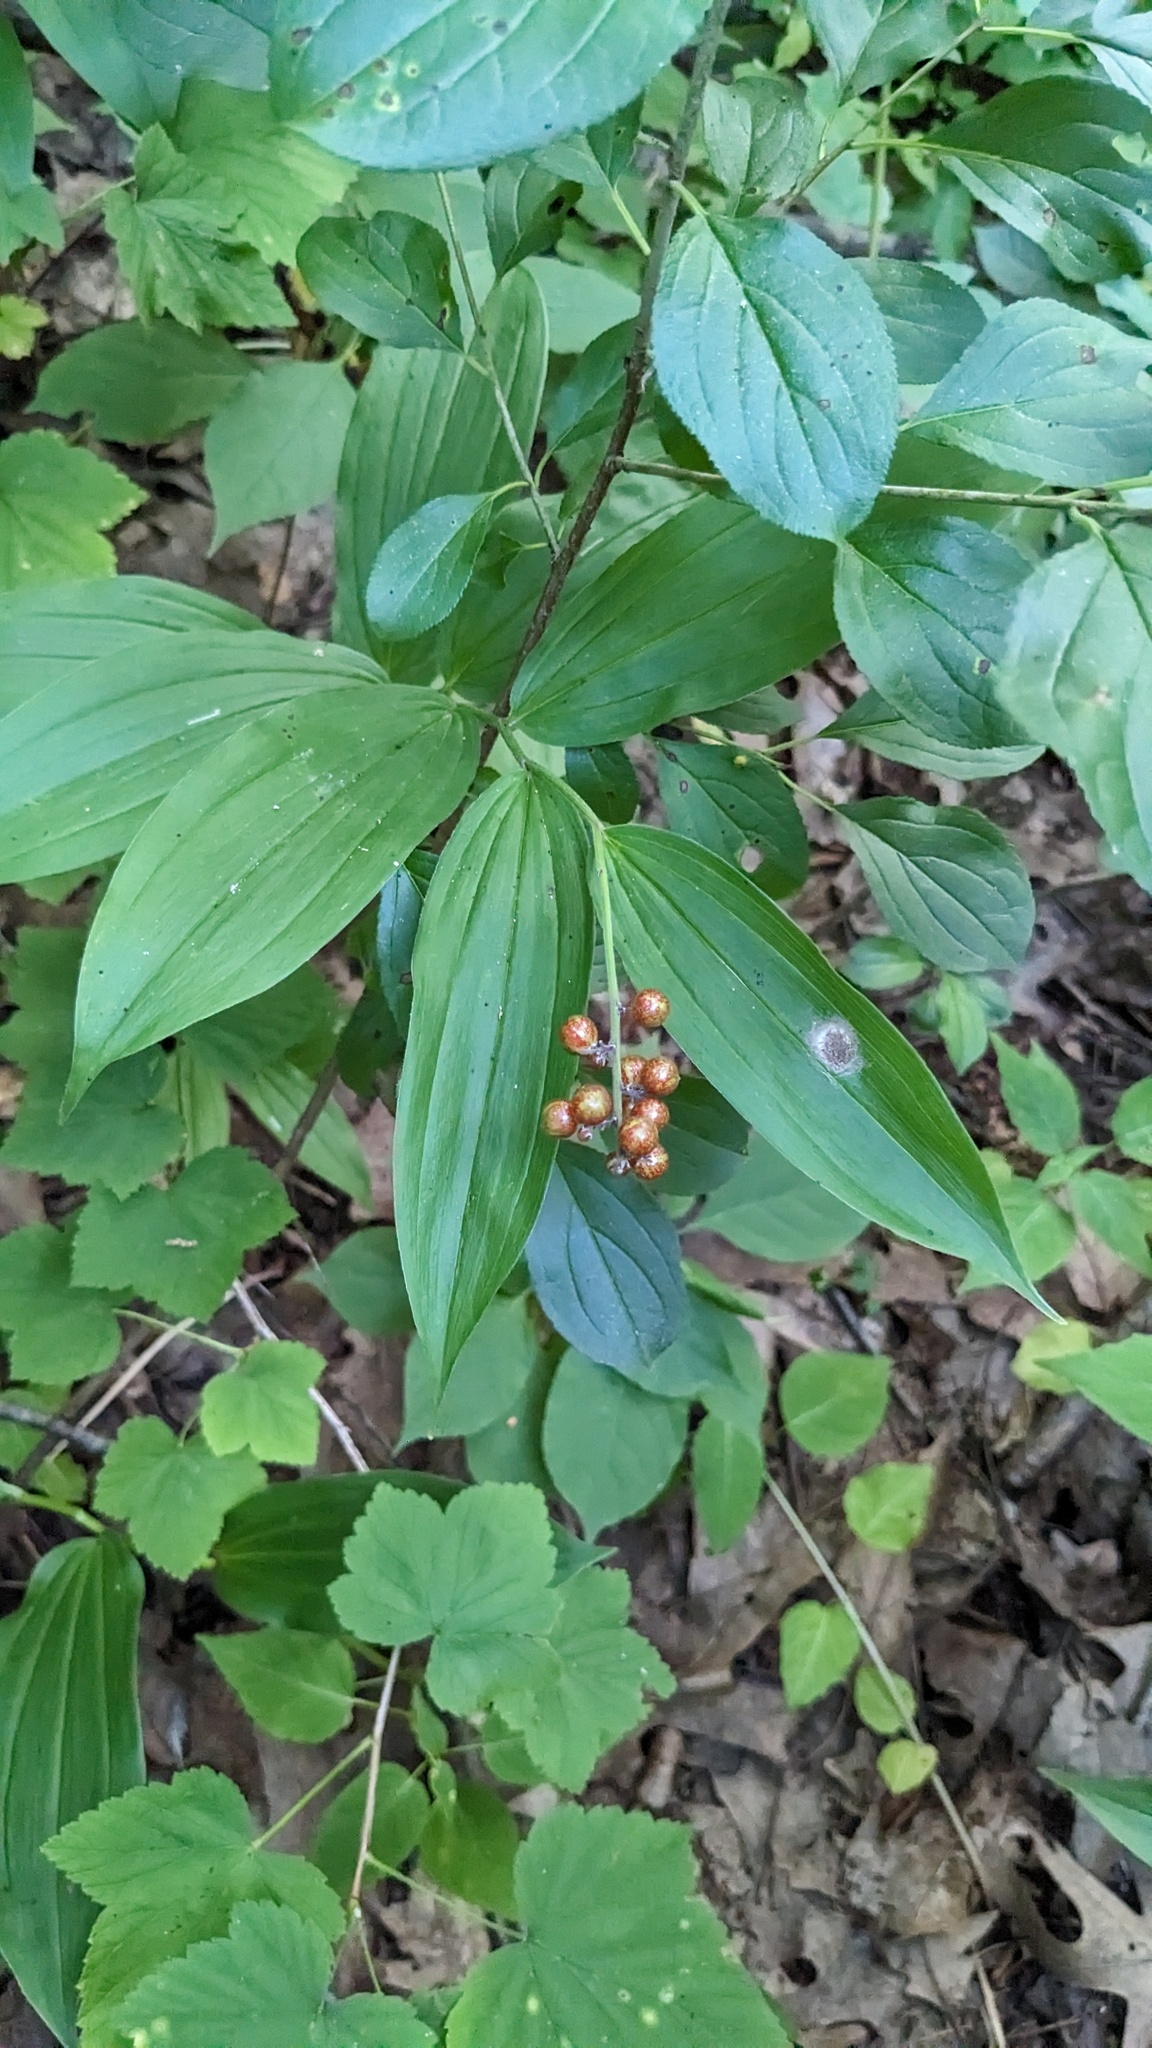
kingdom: Plantae
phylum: Tracheophyta
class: Liliopsida
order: Asparagales
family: Asparagaceae
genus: Maianthemum
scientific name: Maianthemum racemosum
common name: False spikenard
